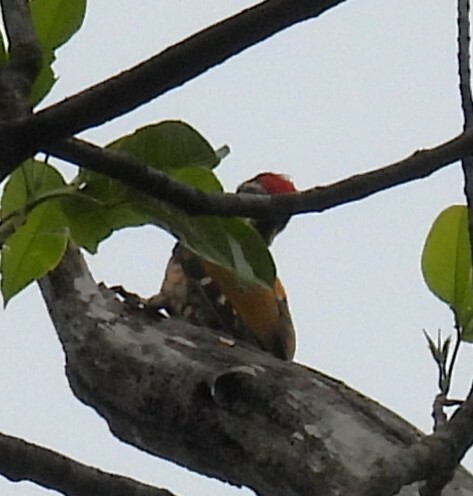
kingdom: Animalia
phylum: Chordata
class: Aves
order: Piciformes
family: Picidae
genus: Dinopium
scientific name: Dinopium benghalense
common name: Black-rumped flameback
